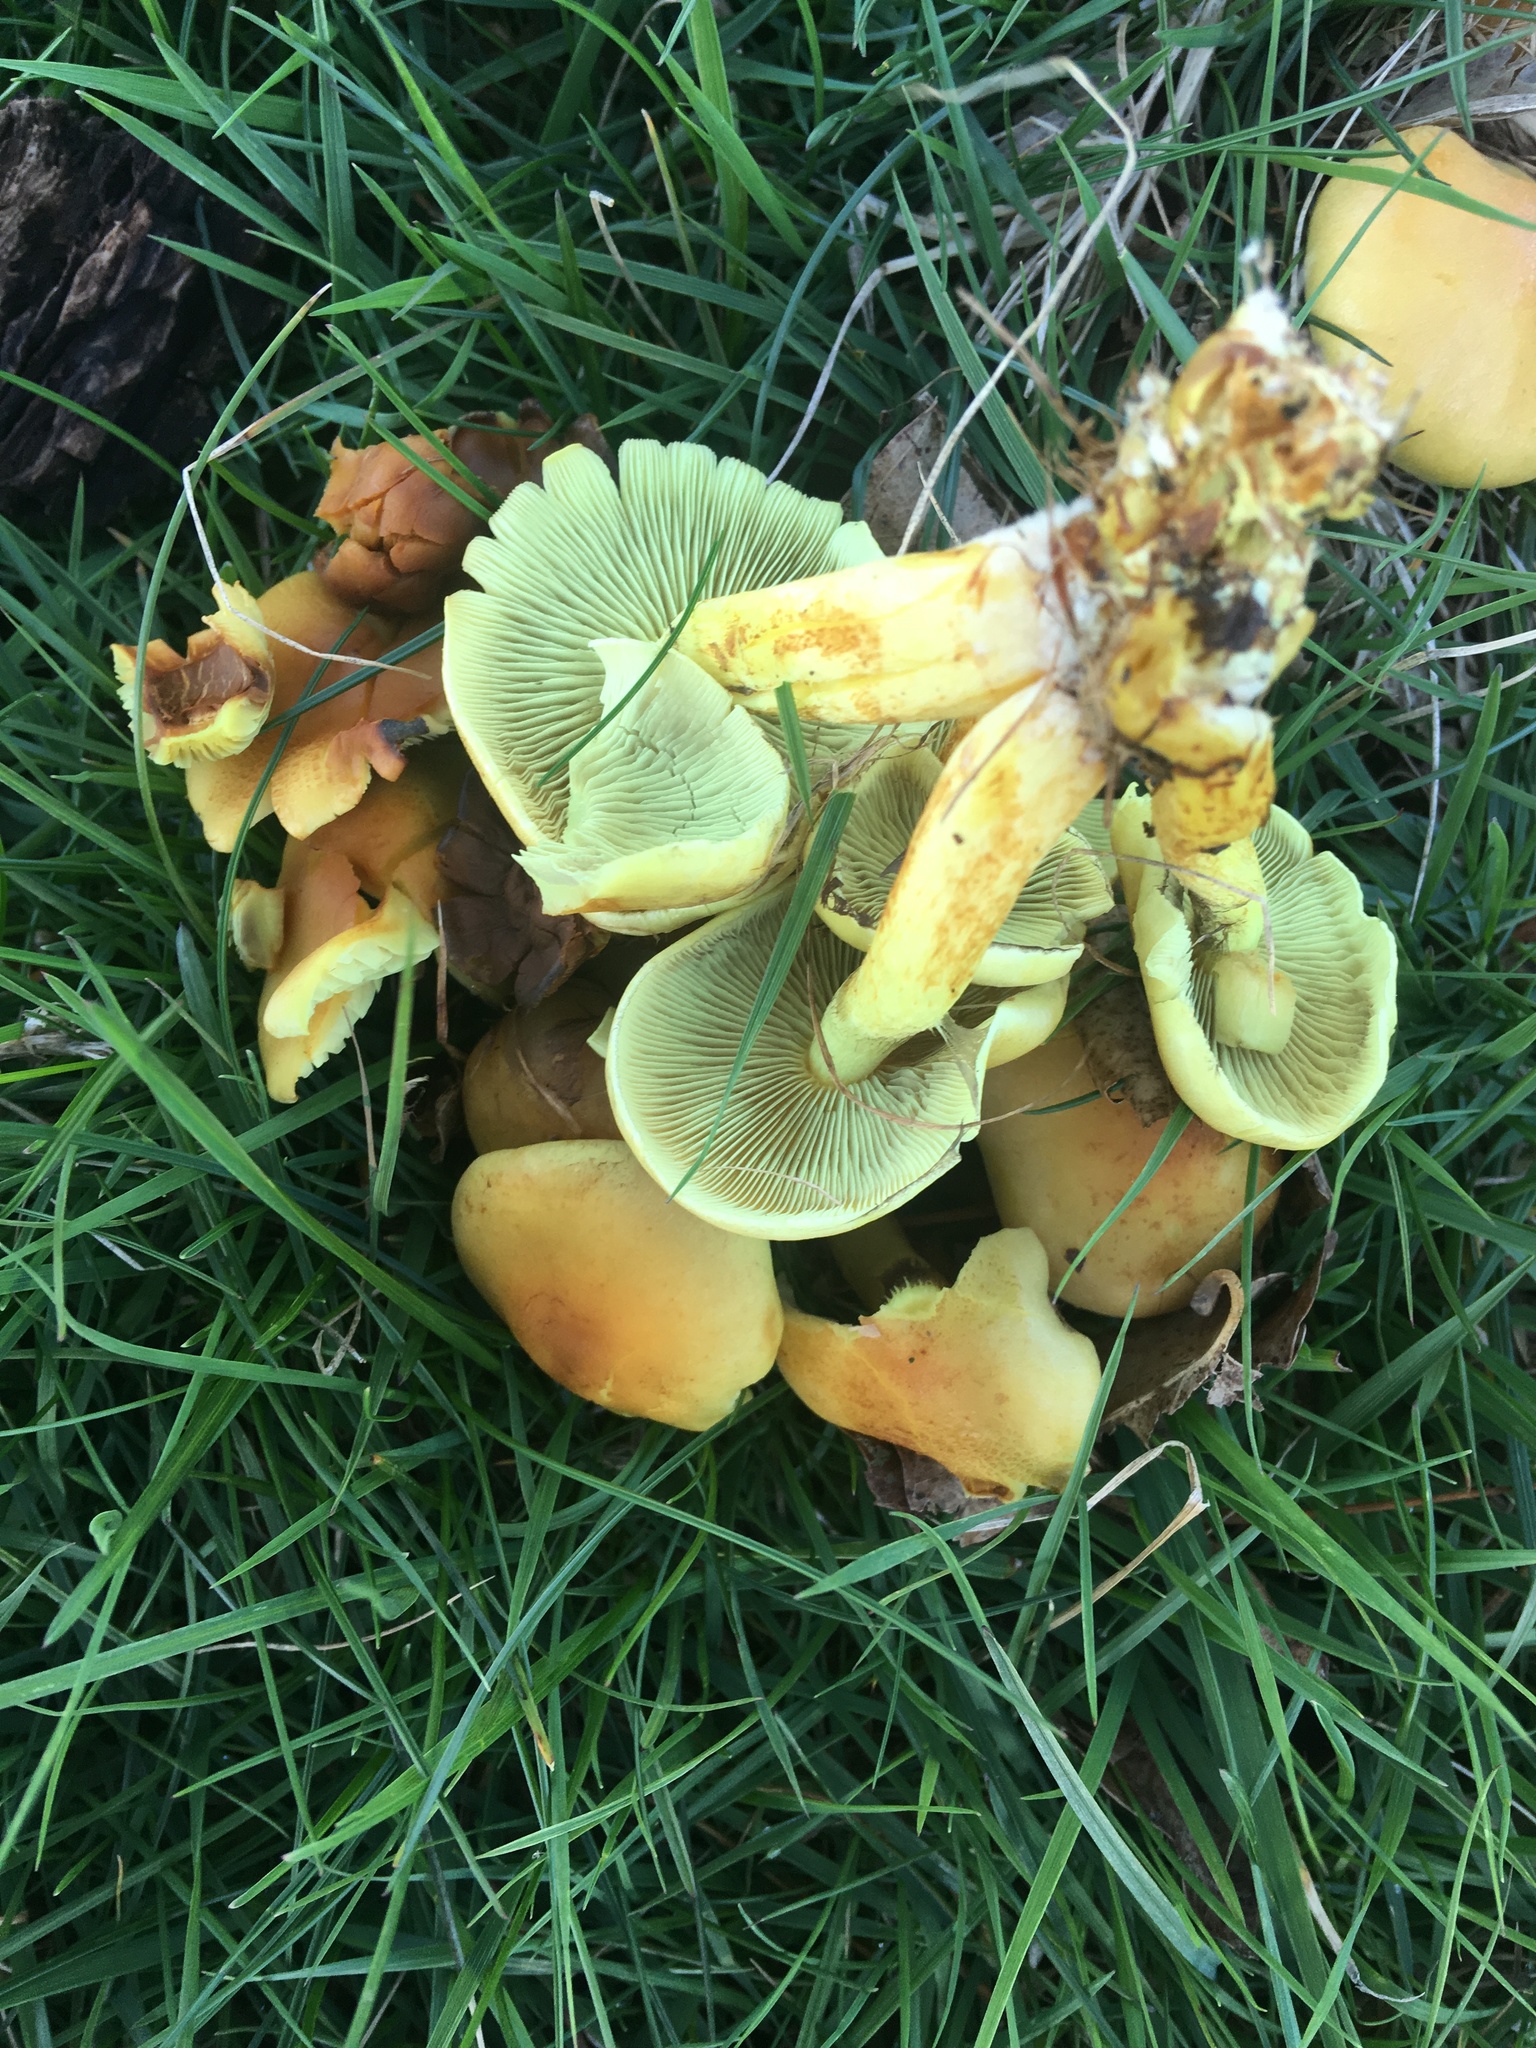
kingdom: Fungi
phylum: Basidiomycota
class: Agaricomycetes
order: Agaricales
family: Strophariaceae
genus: Hypholoma
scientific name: Hypholoma fasciculare
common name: Sulphur tuft
